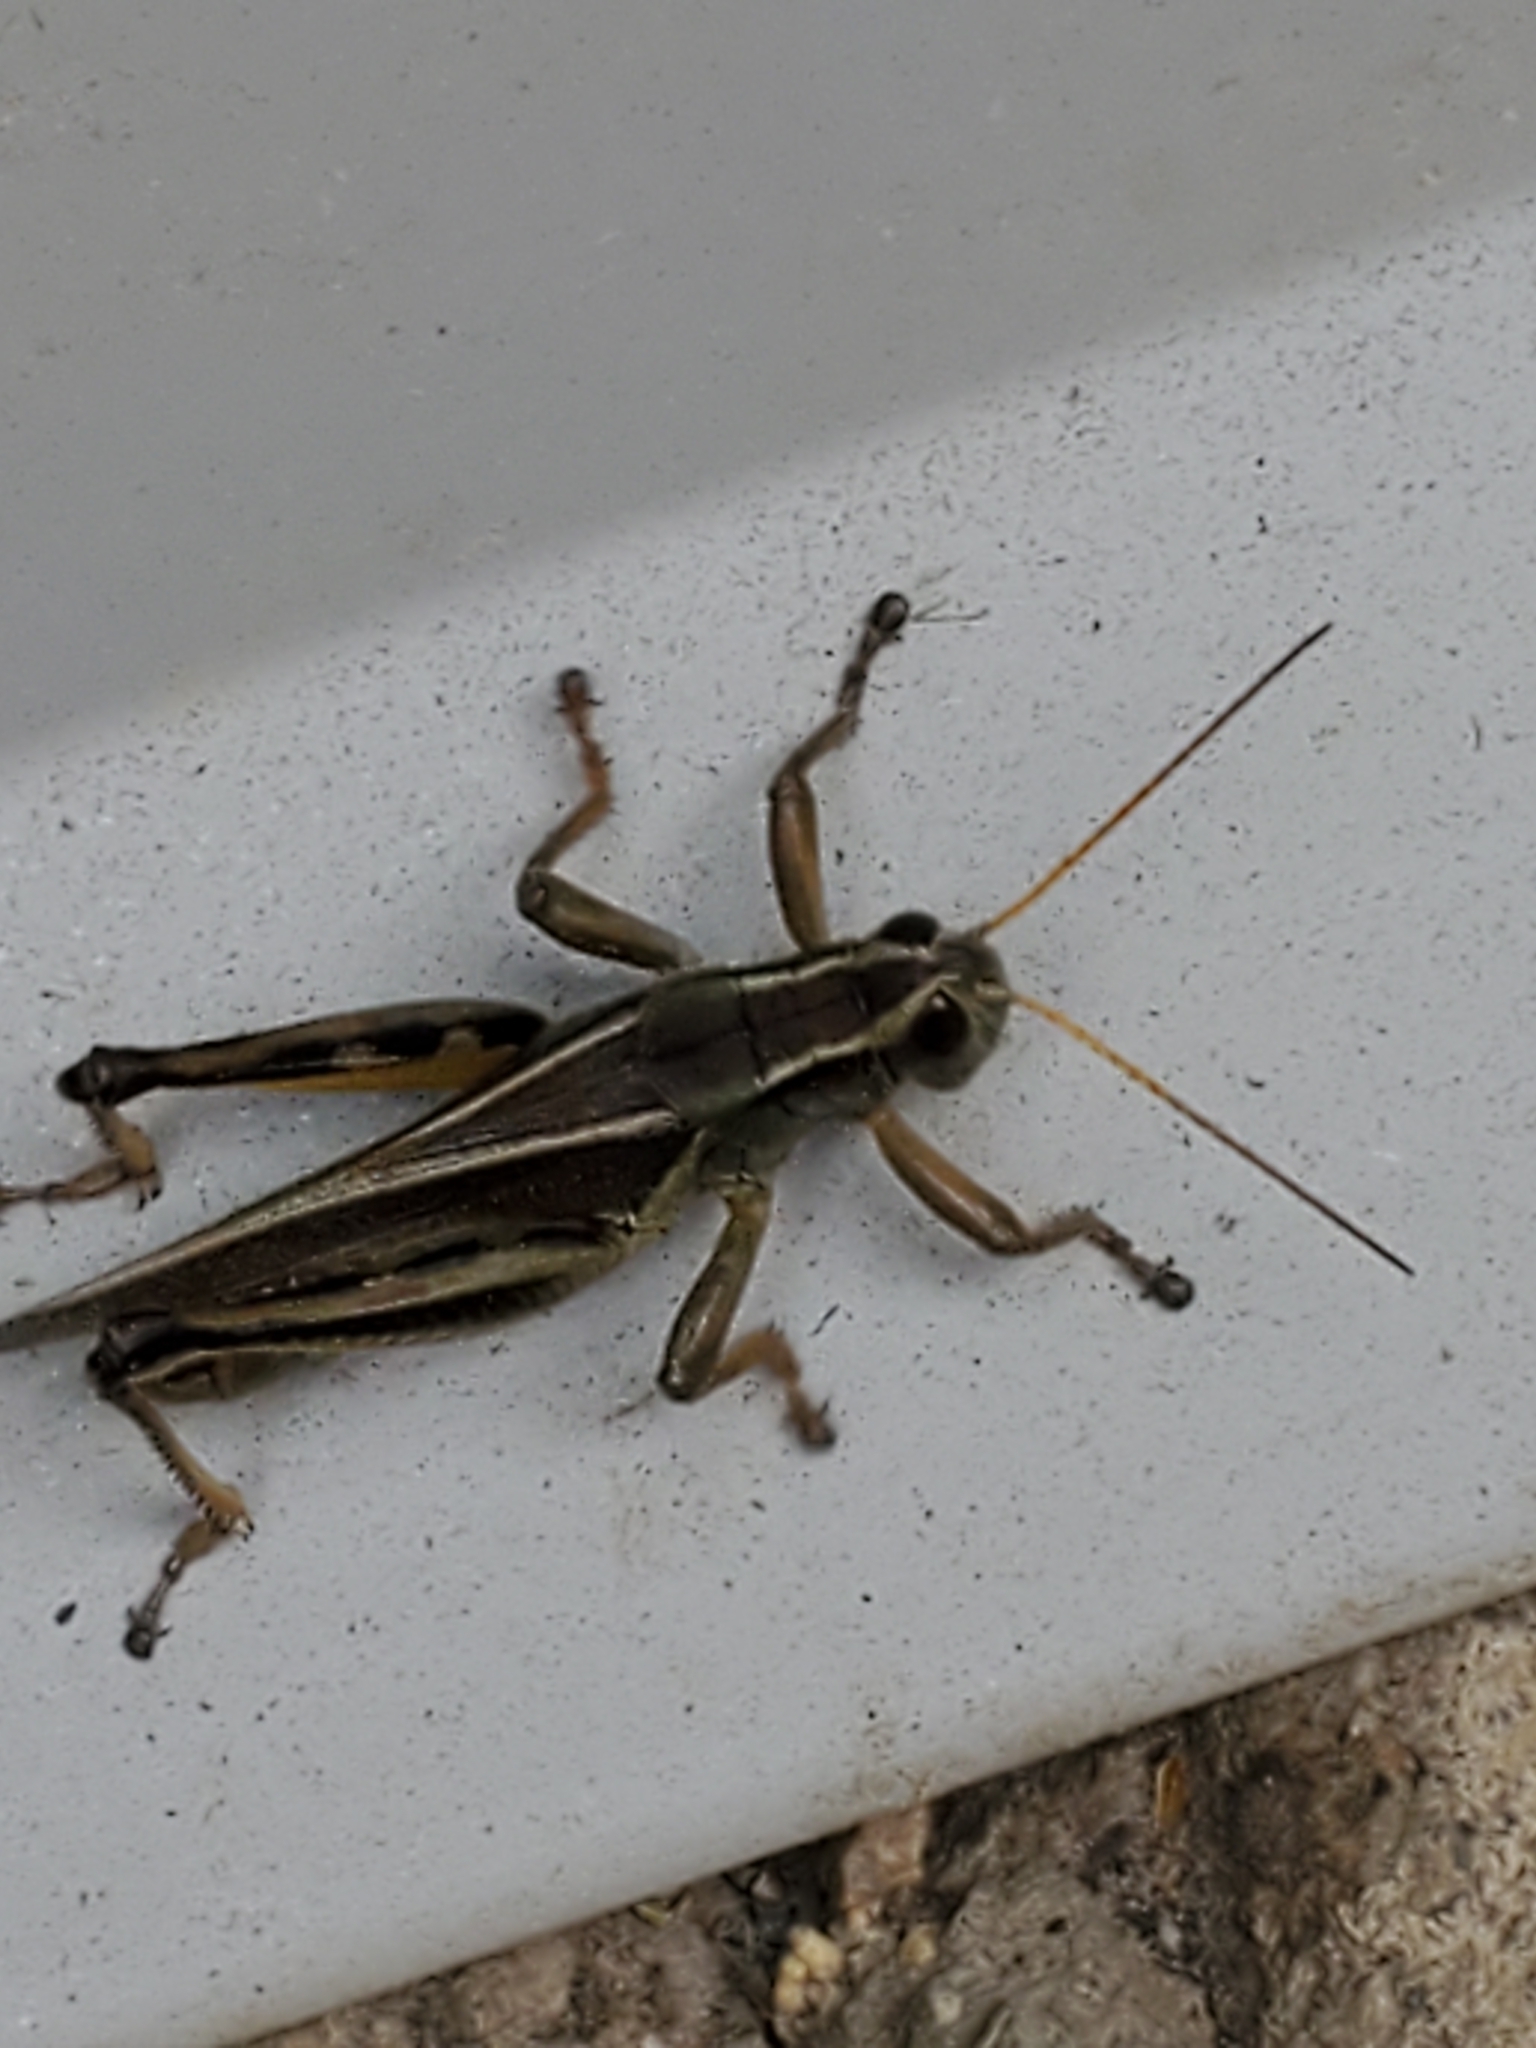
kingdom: Animalia
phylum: Arthropoda
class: Insecta
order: Orthoptera
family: Acrididae
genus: Melanoplus
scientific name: Melanoplus bivittatus
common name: Two-striped grasshopper
